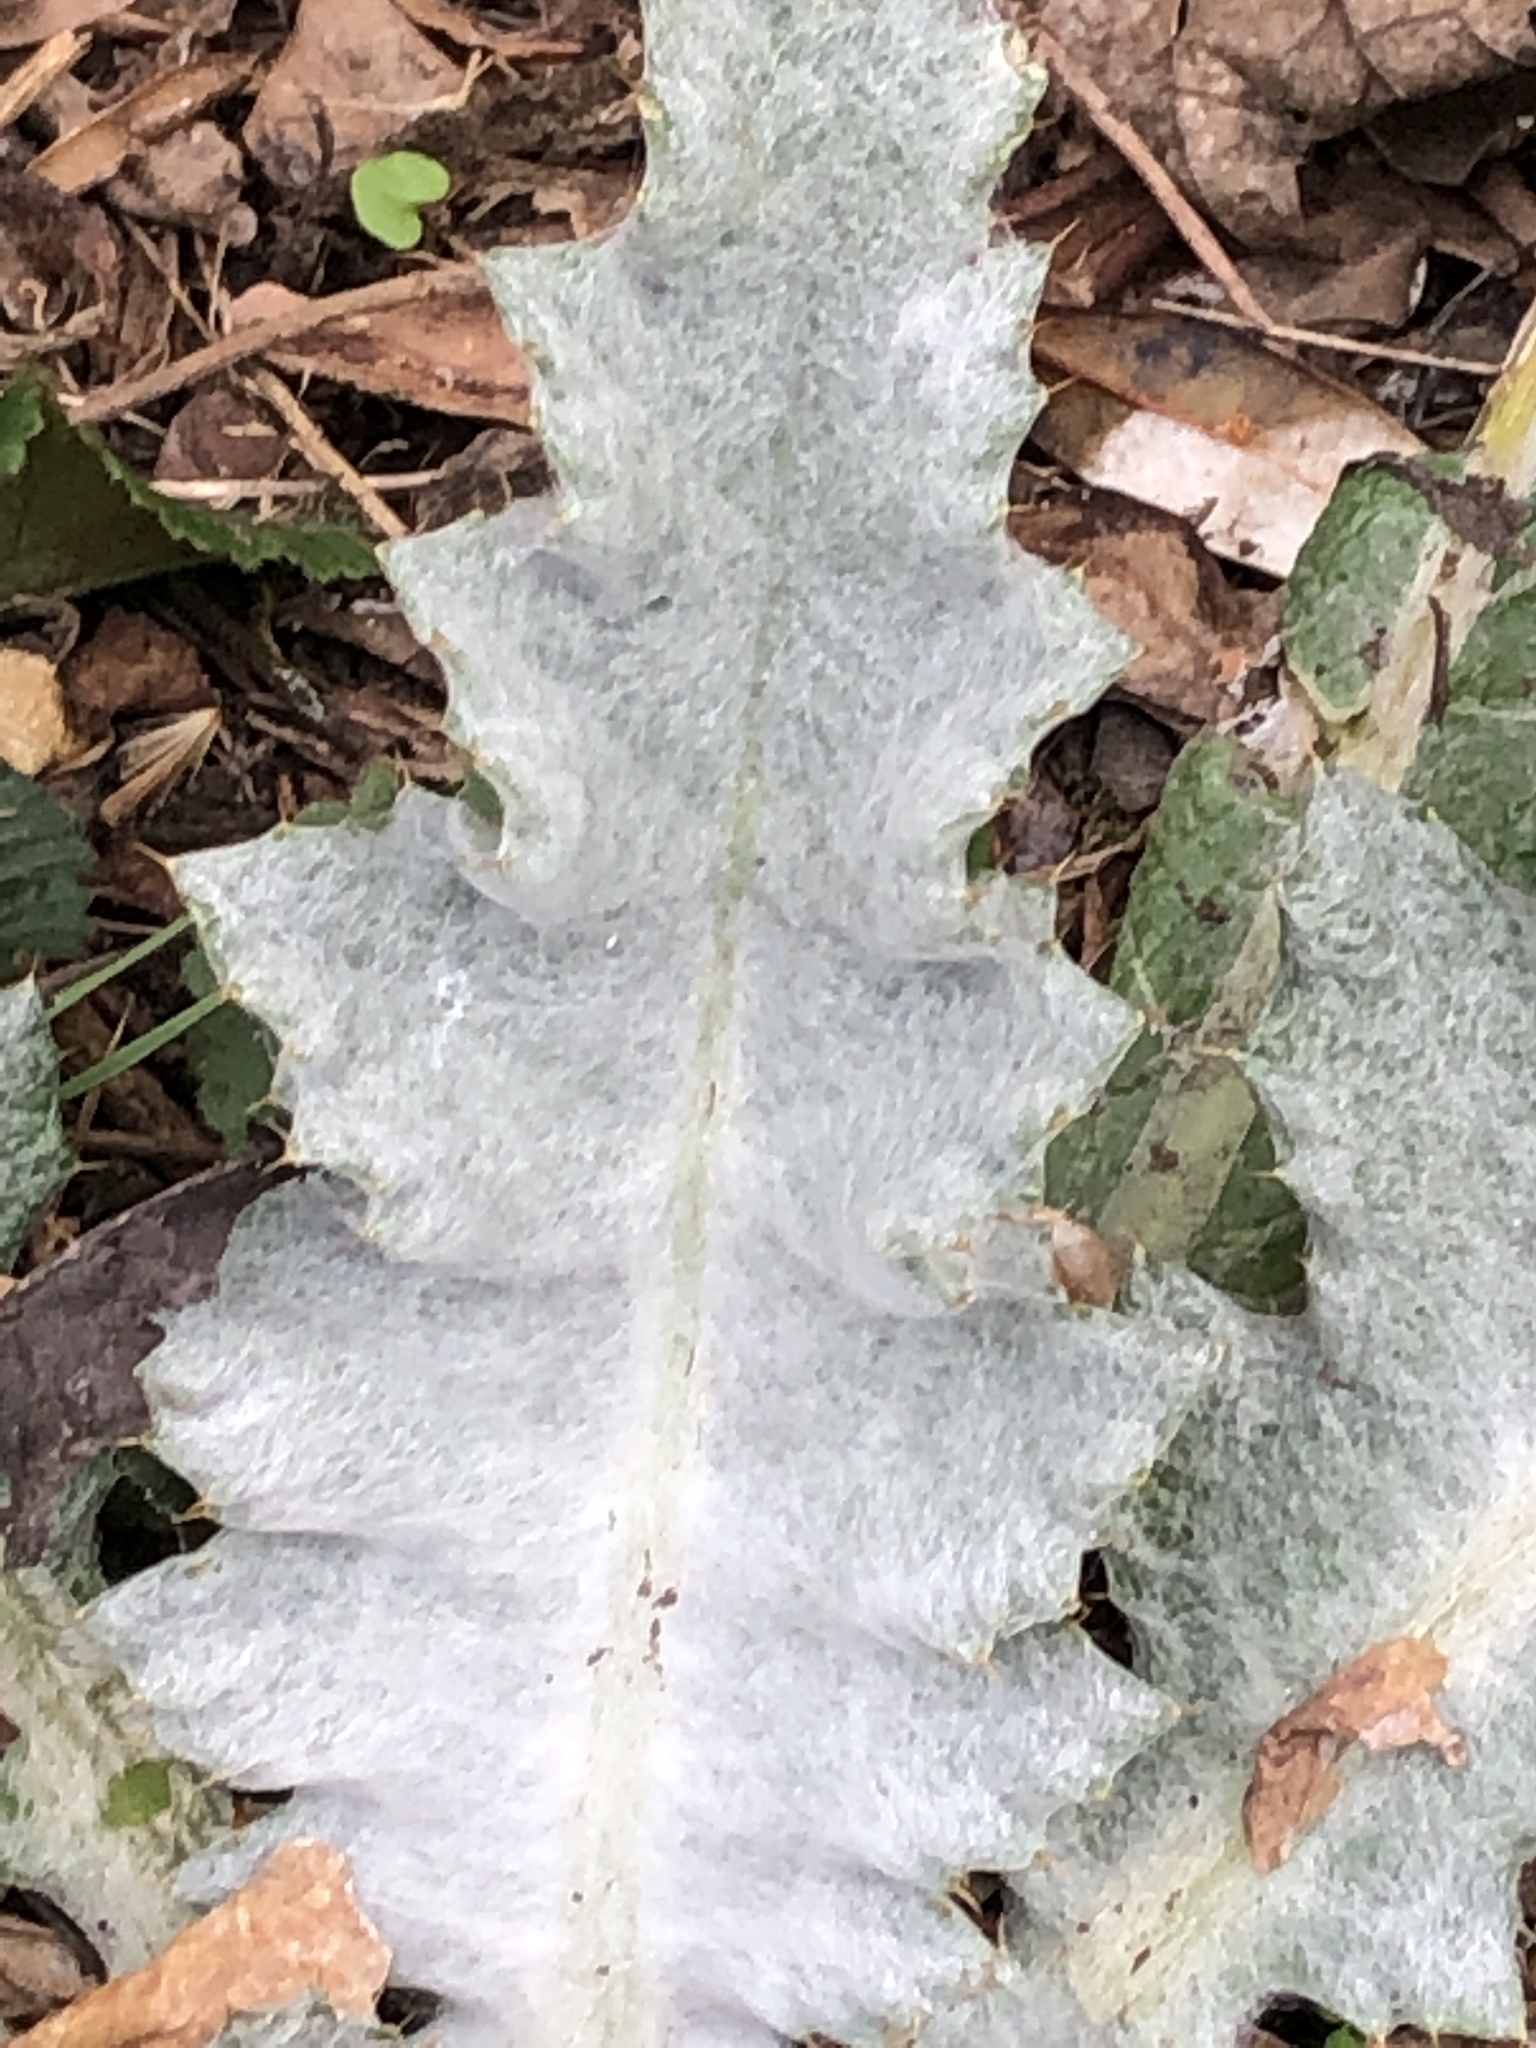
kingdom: Plantae
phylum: Tracheophyta
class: Magnoliopsida
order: Asterales
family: Asteraceae
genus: Onopordum
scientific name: Onopordum acanthium
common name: Scotch thistle
